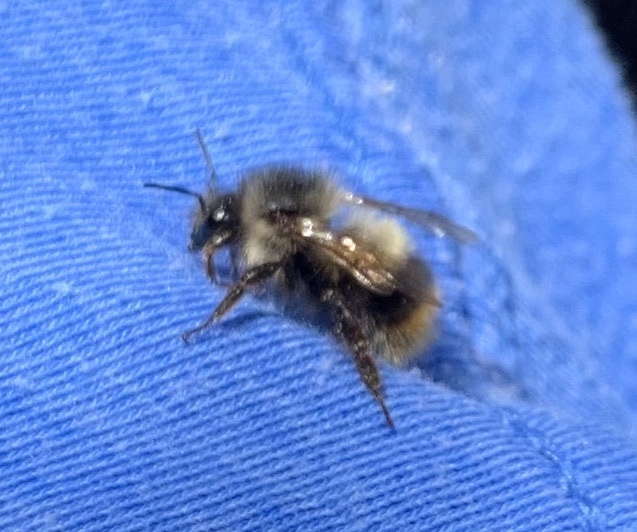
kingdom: Animalia
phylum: Arthropoda
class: Insecta
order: Hymenoptera
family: Apidae
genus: Bombus
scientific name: Bombus mixtus
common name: Fuzzy-horned bumble bee
